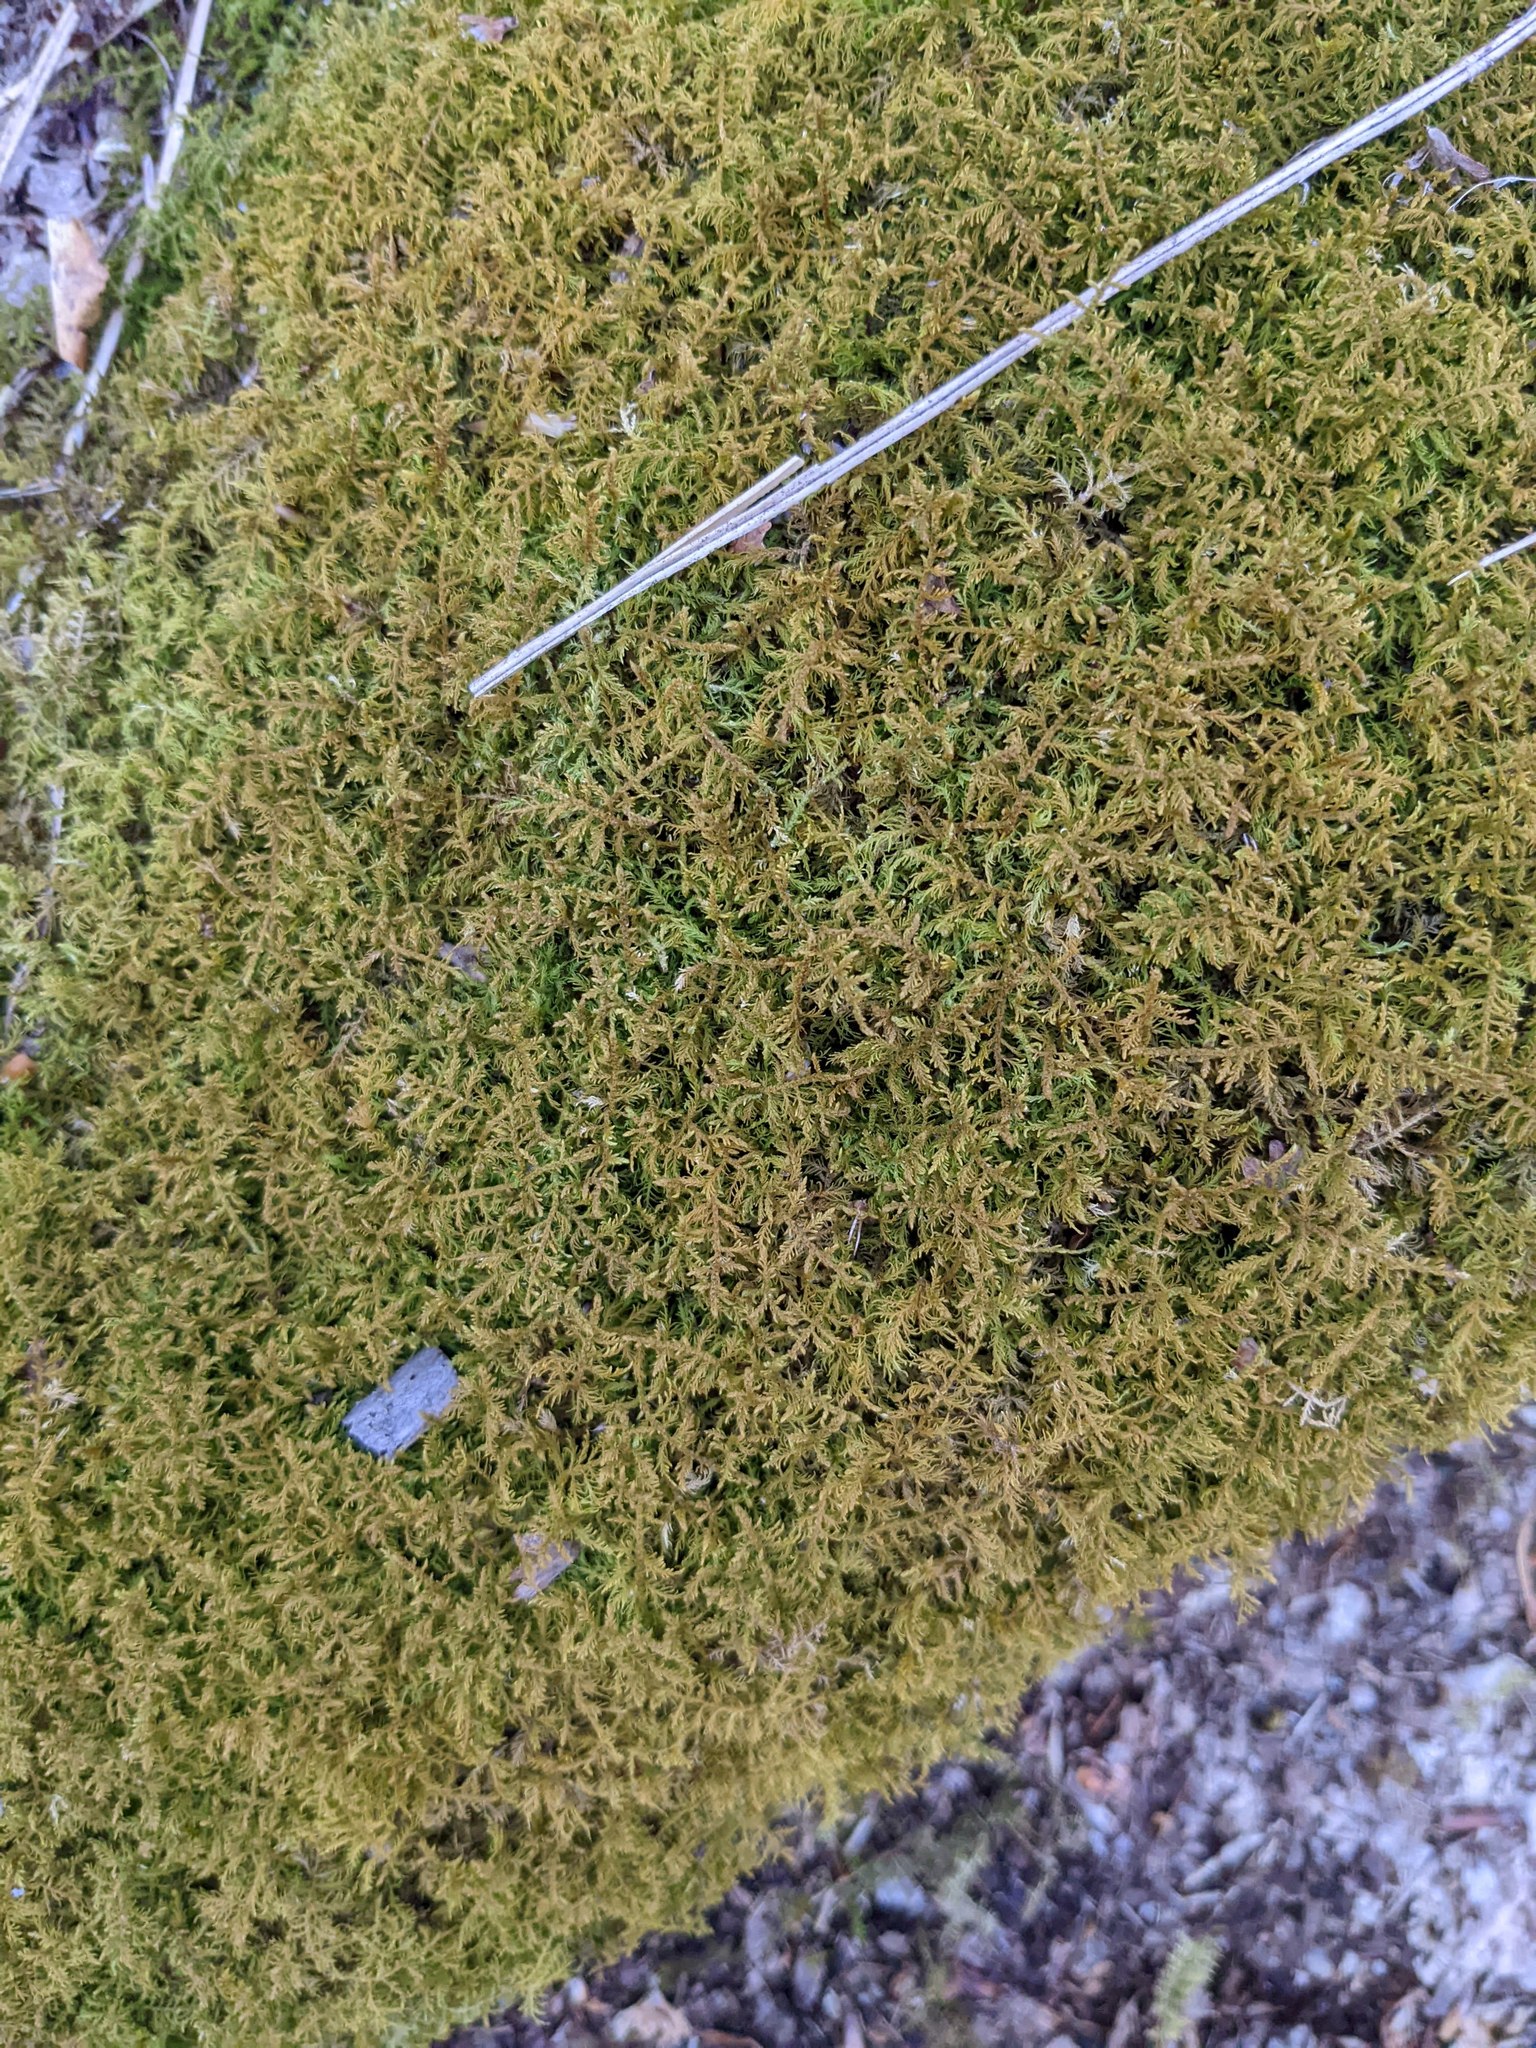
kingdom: Plantae
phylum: Bryophyta
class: Bryopsida
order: Hypnales
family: Callicladiaceae
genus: Callicladium
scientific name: Callicladium imponens
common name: Brocade moss
